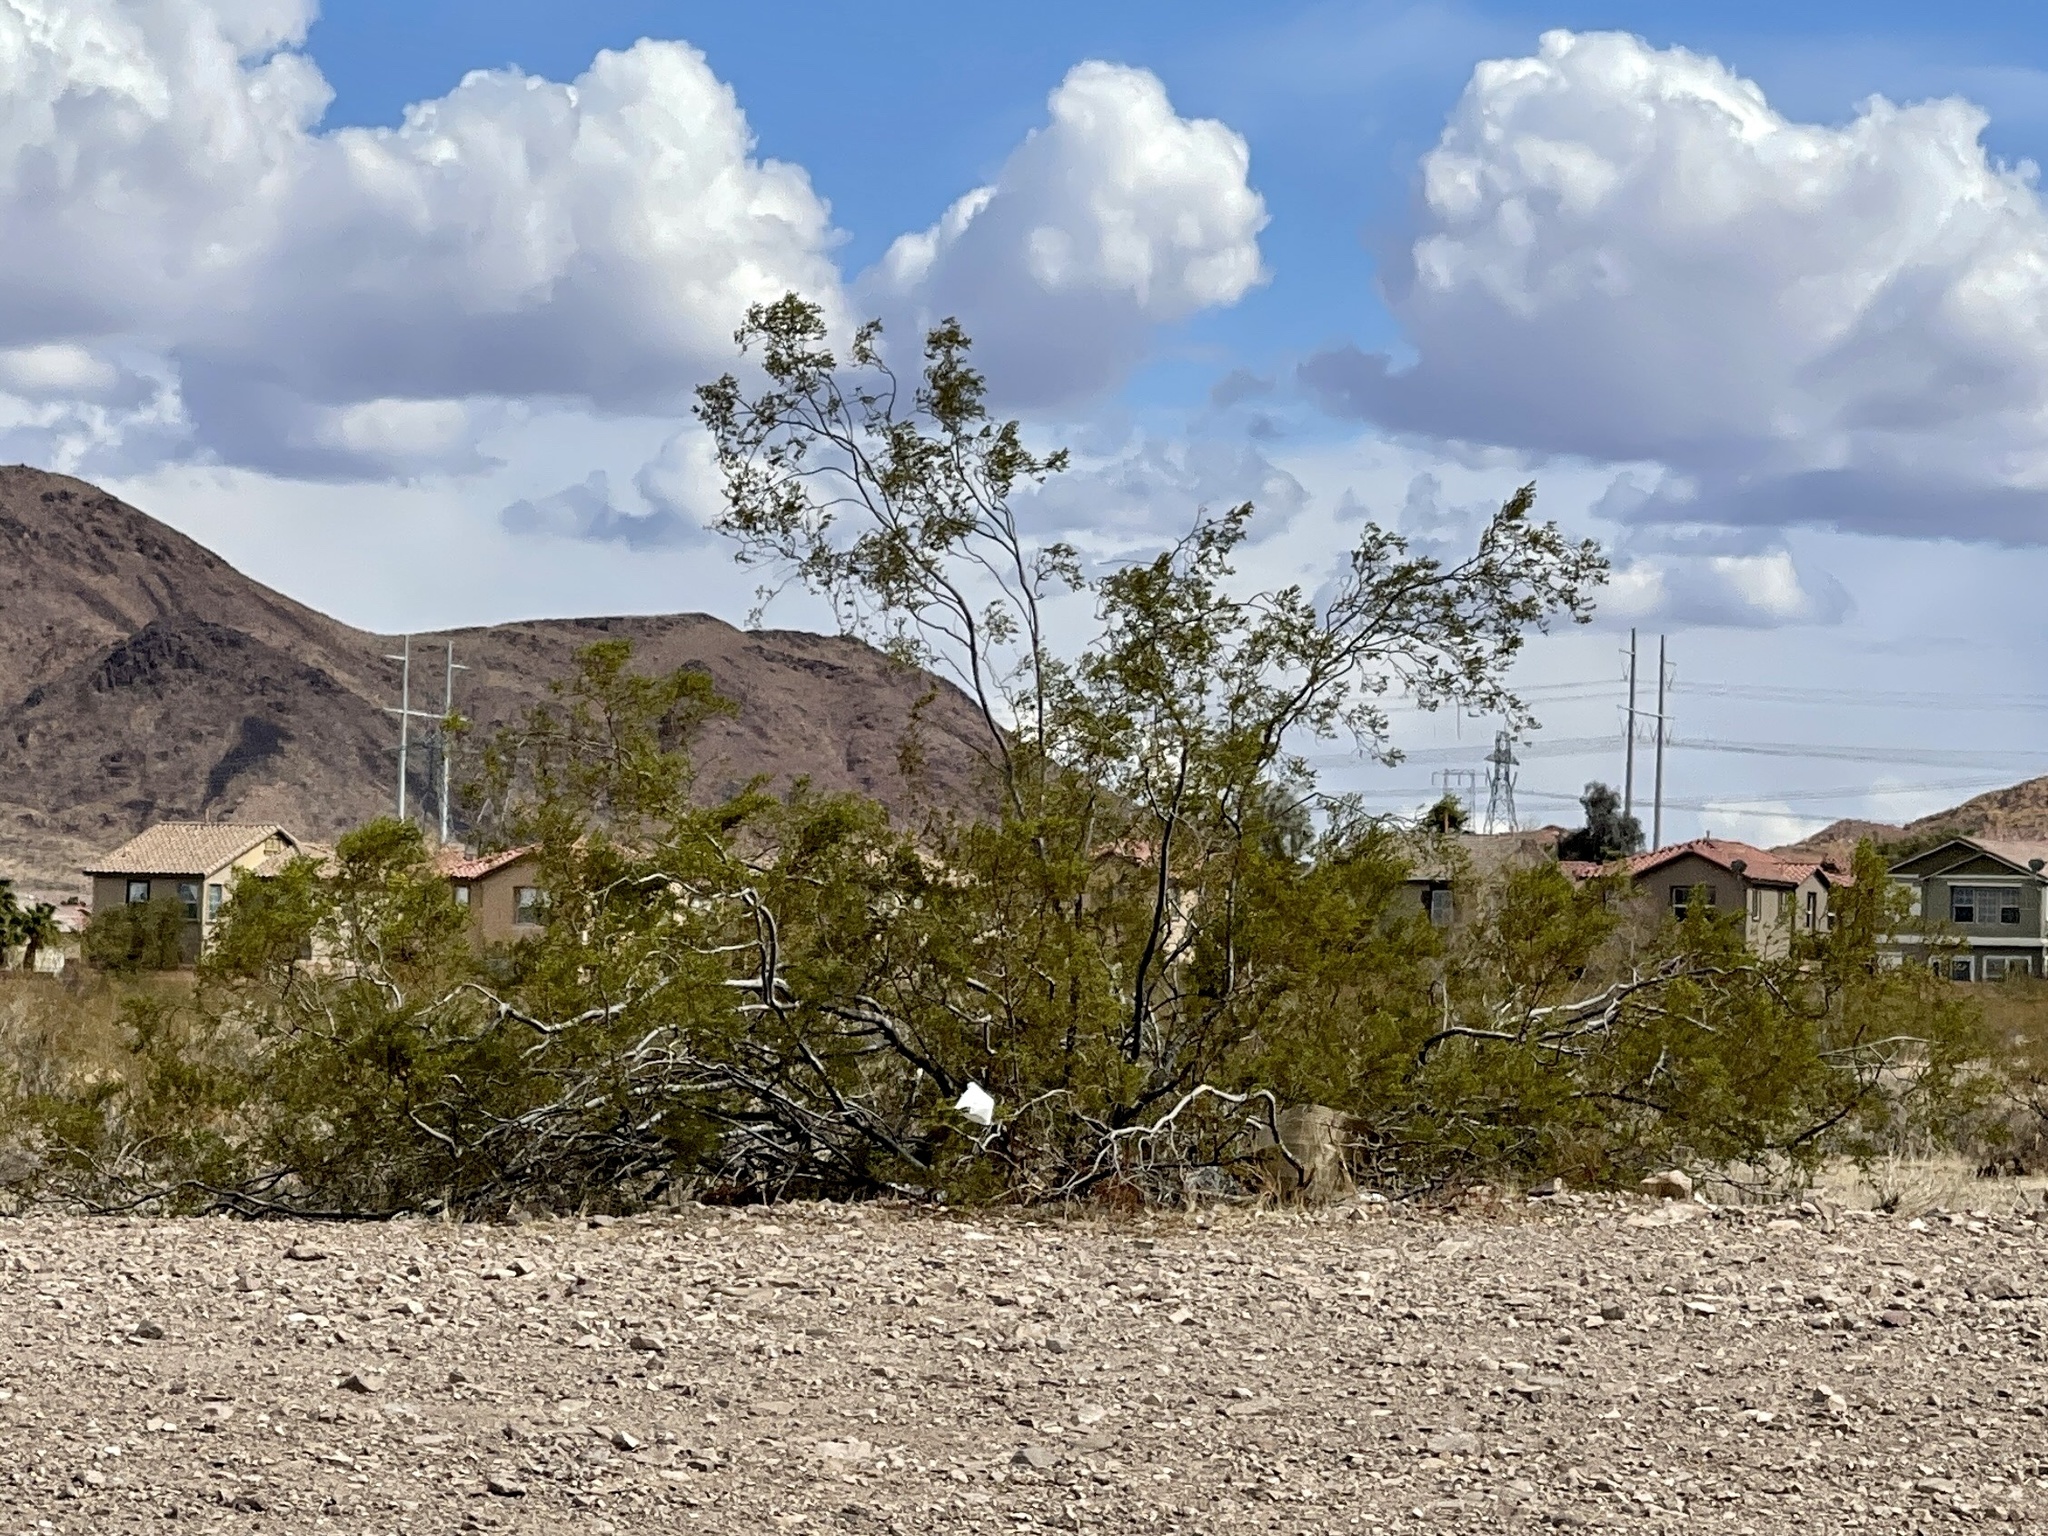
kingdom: Plantae
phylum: Tracheophyta
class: Magnoliopsida
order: Zygophyllales
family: Zygophyllaceae
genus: Larrea
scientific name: Larrea tridentata
